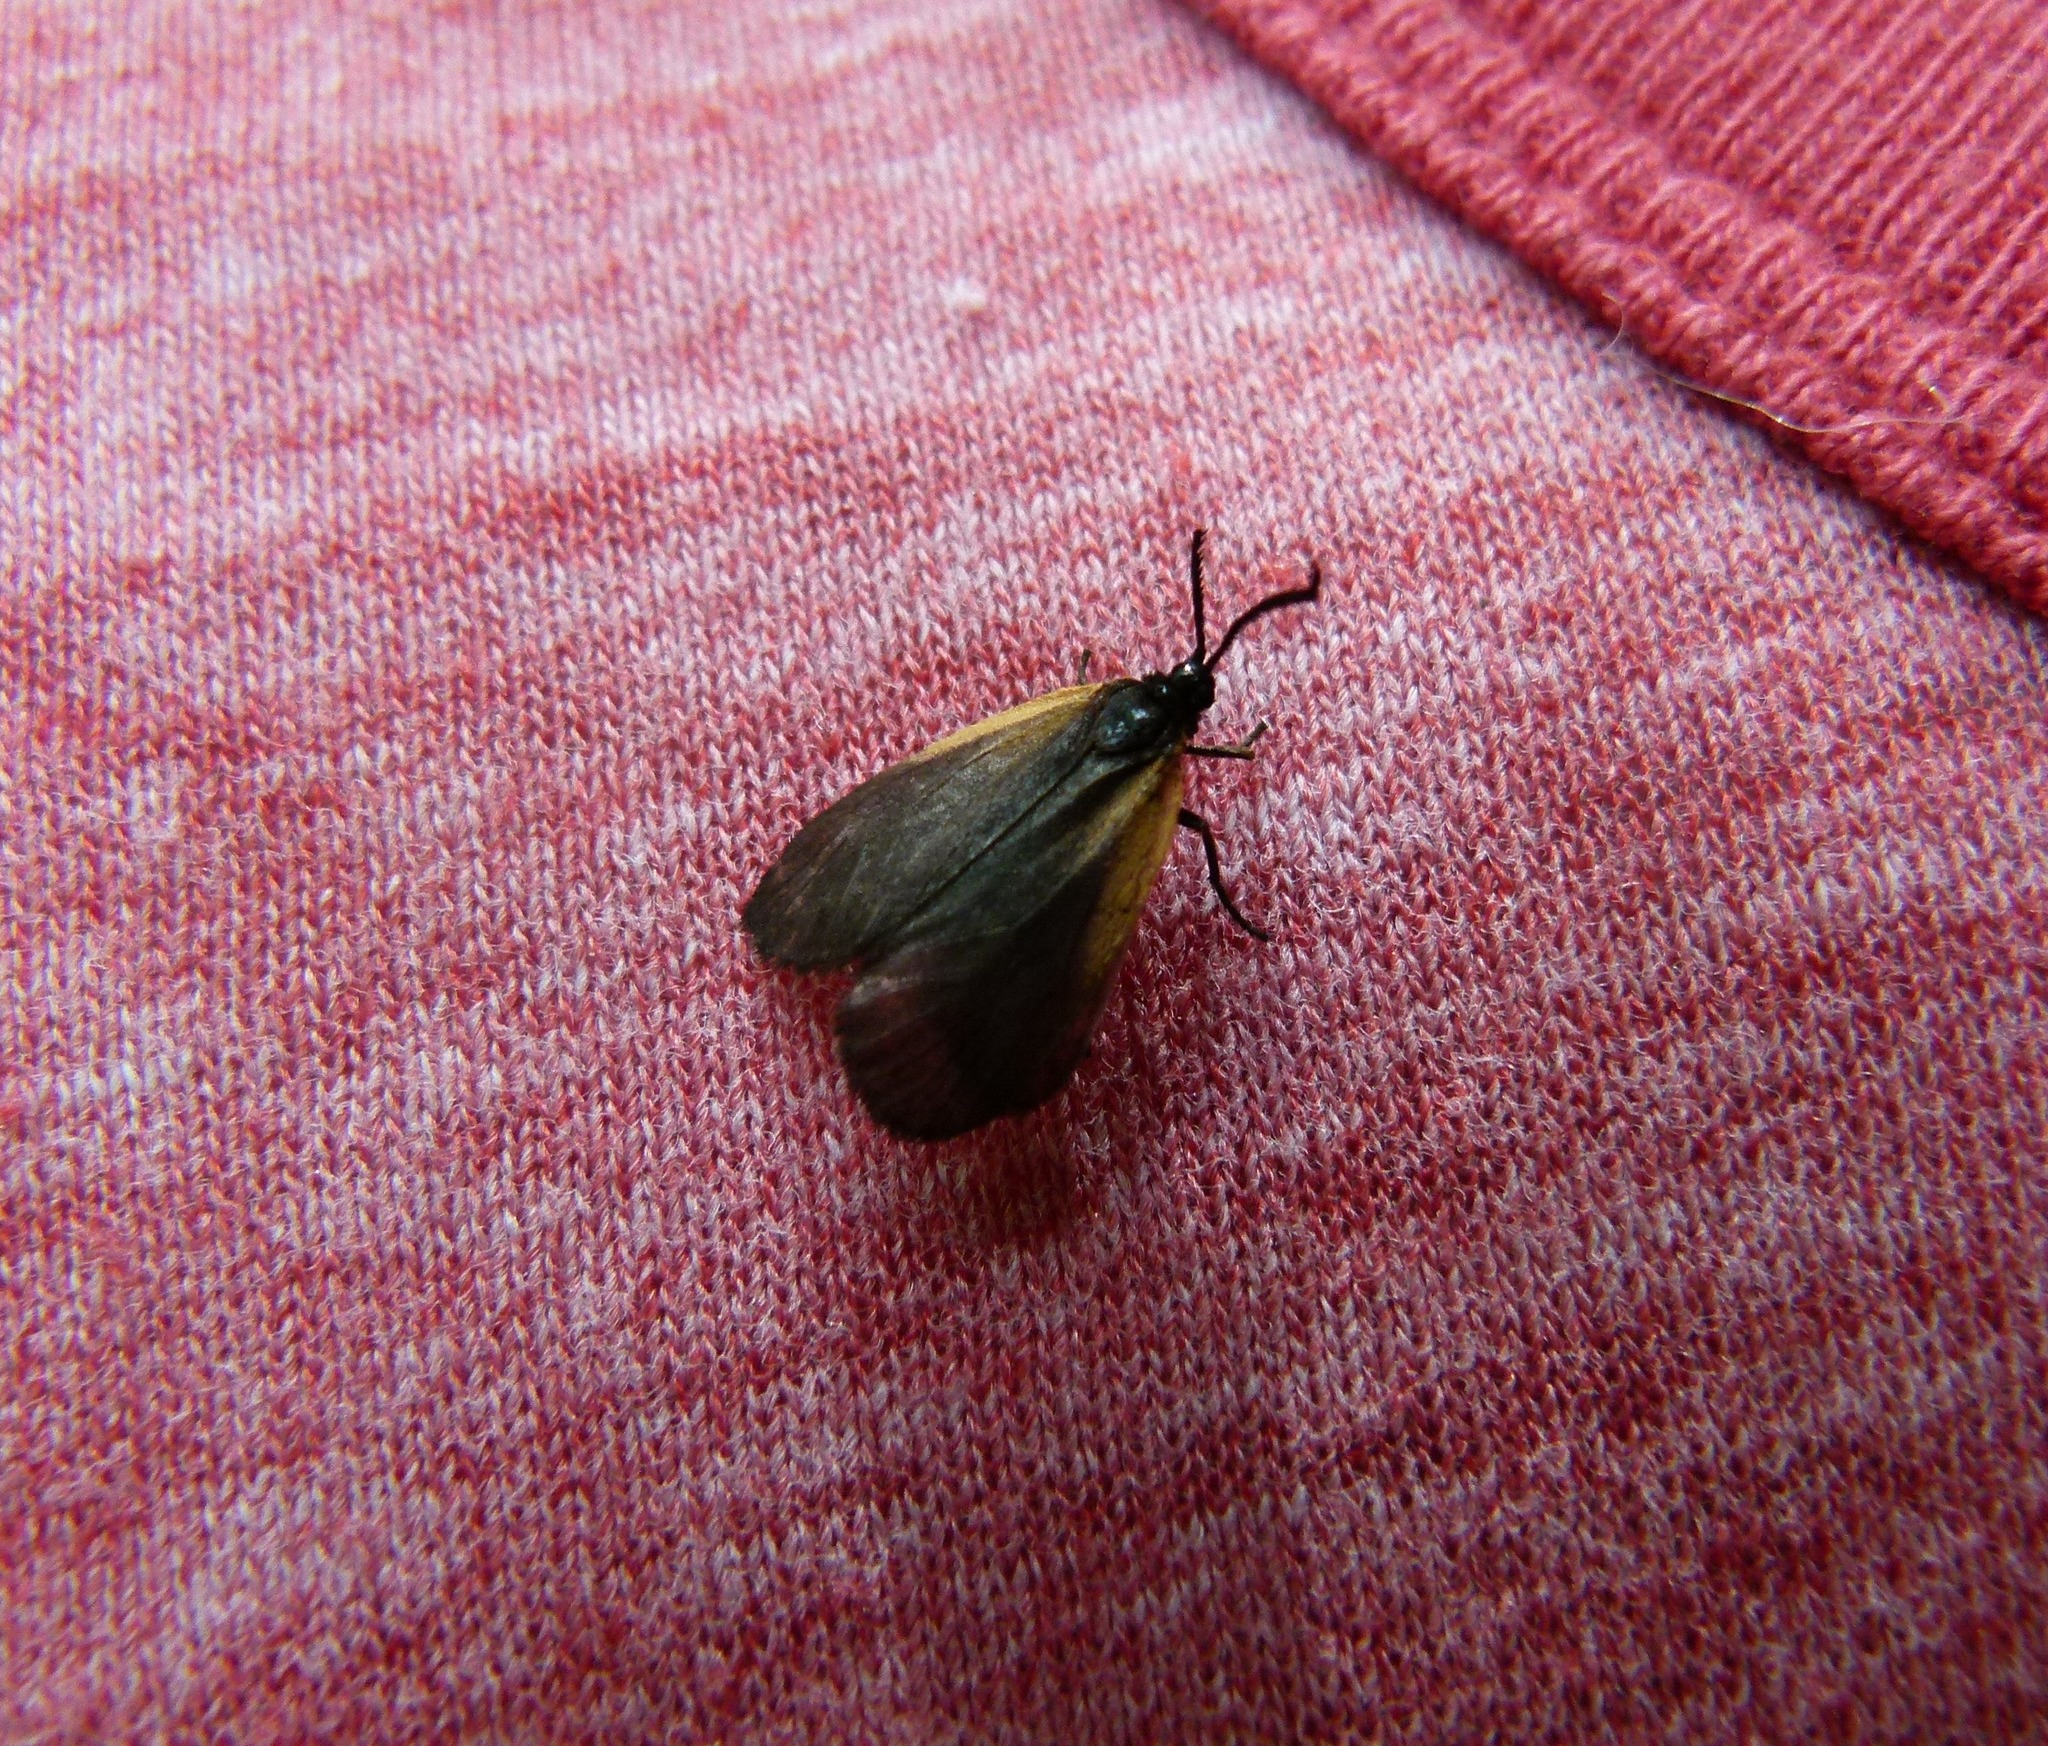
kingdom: Animalia
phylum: Arthropoda
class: Insecta
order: Lepidoptera
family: Zygaenidae
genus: Malthaca
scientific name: Malthaca dimidiata
